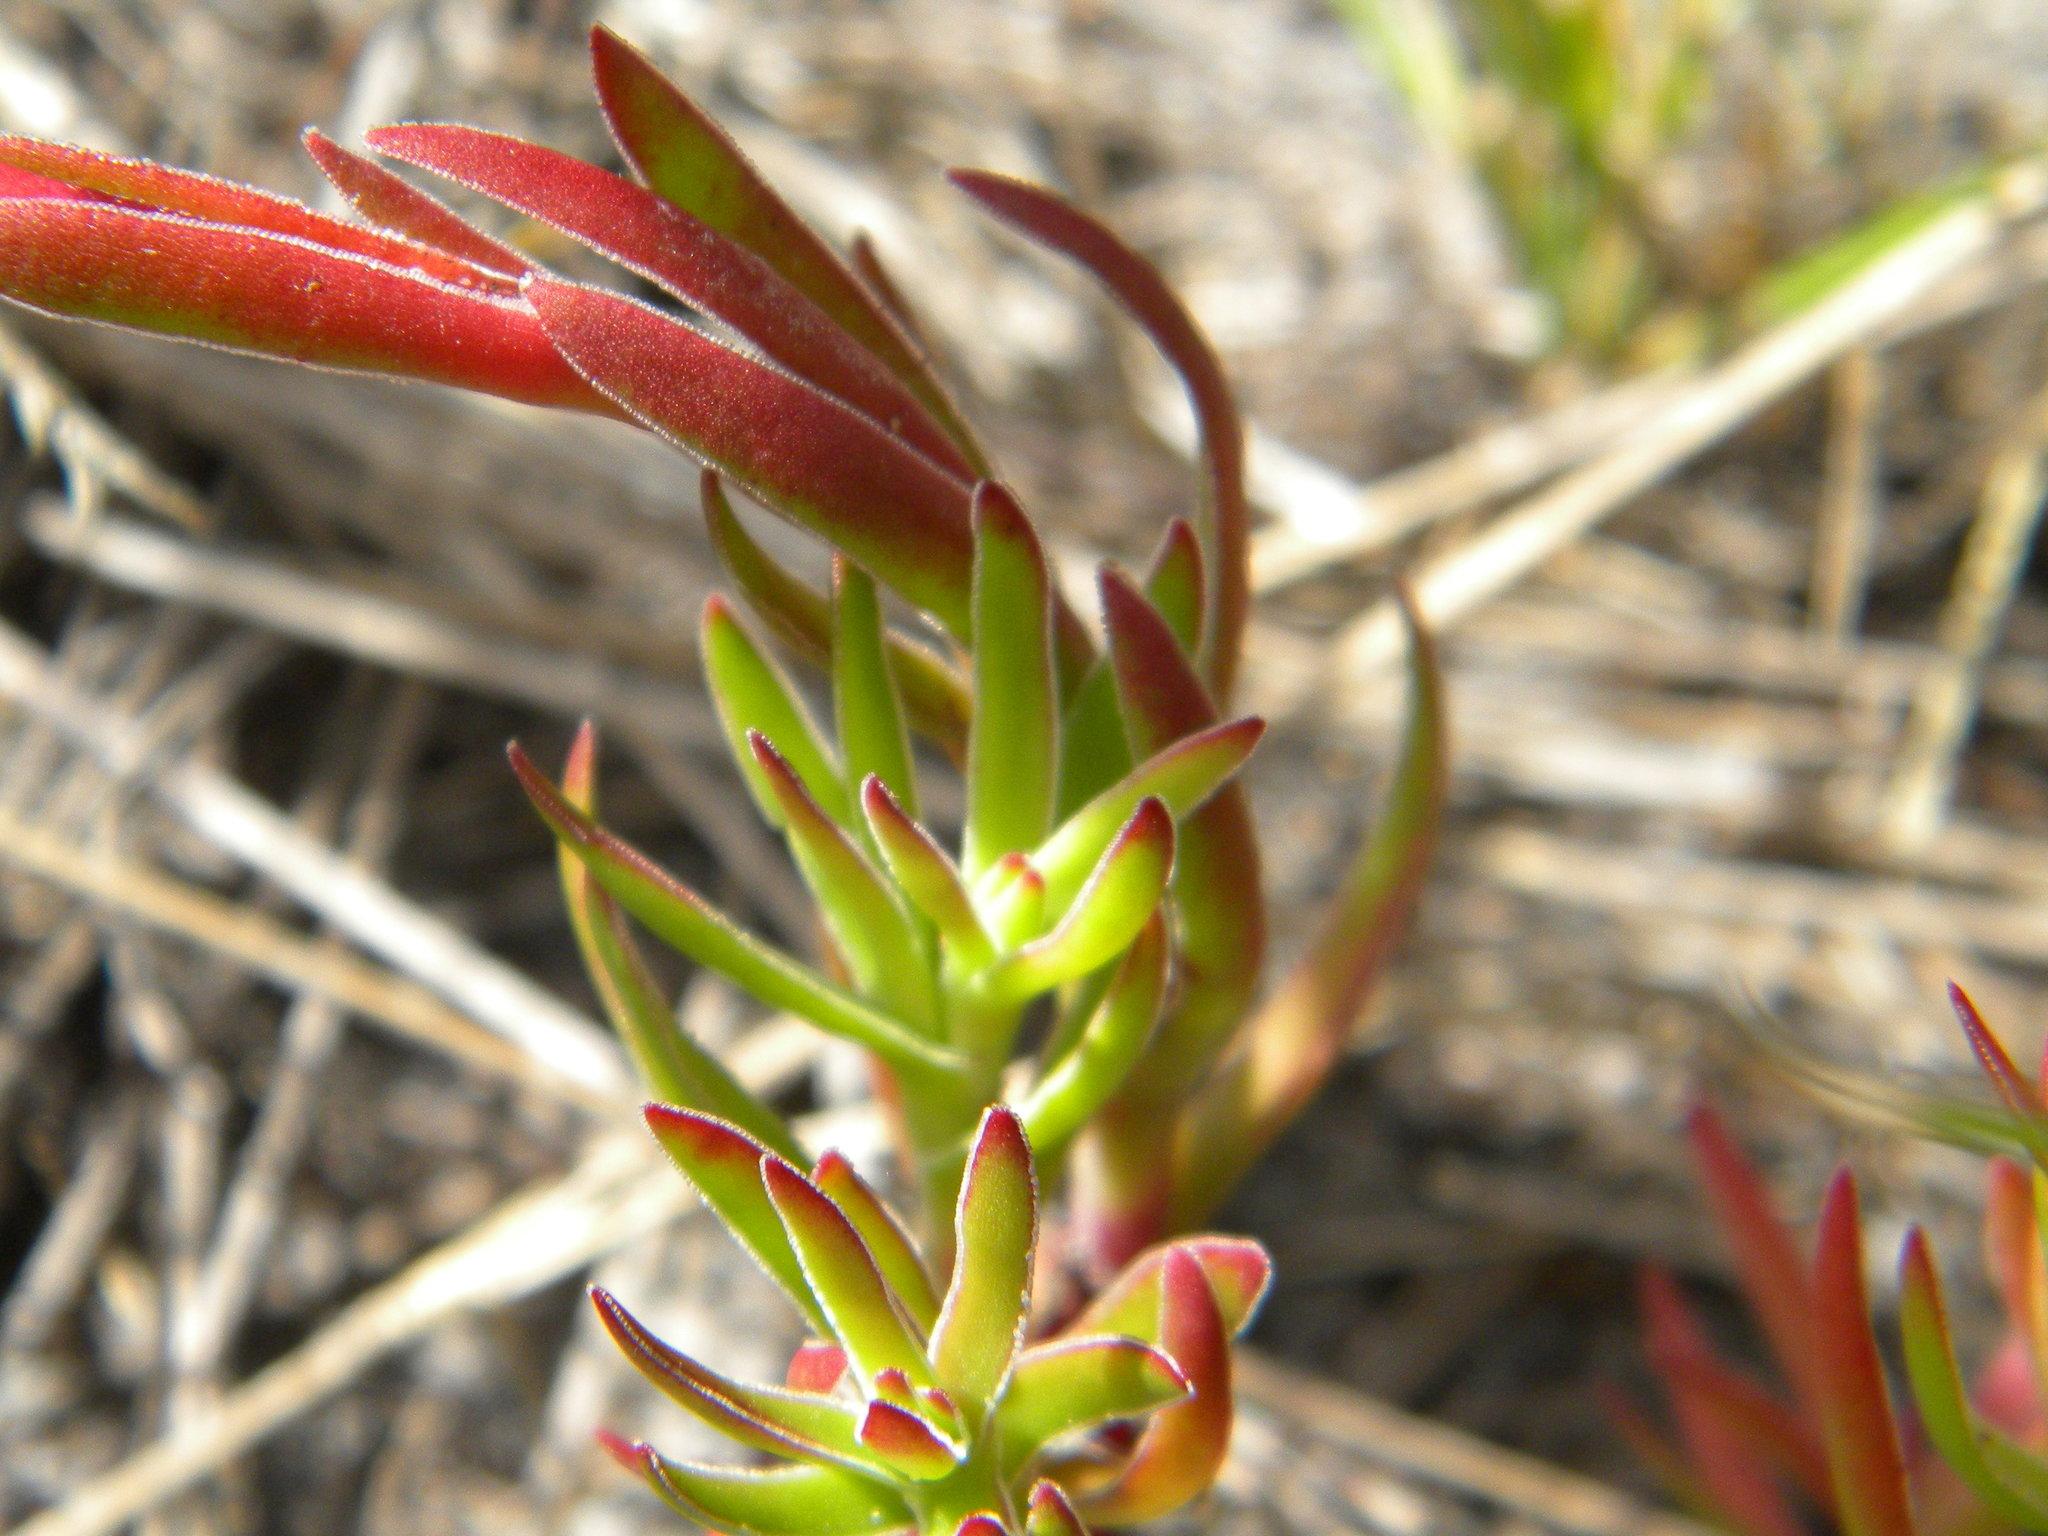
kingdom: Plantae
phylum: Tracheophyta
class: Magnoliopsida
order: Saxifragales
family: Crassulaceae
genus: Crassula
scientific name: Crassula fascicularis
